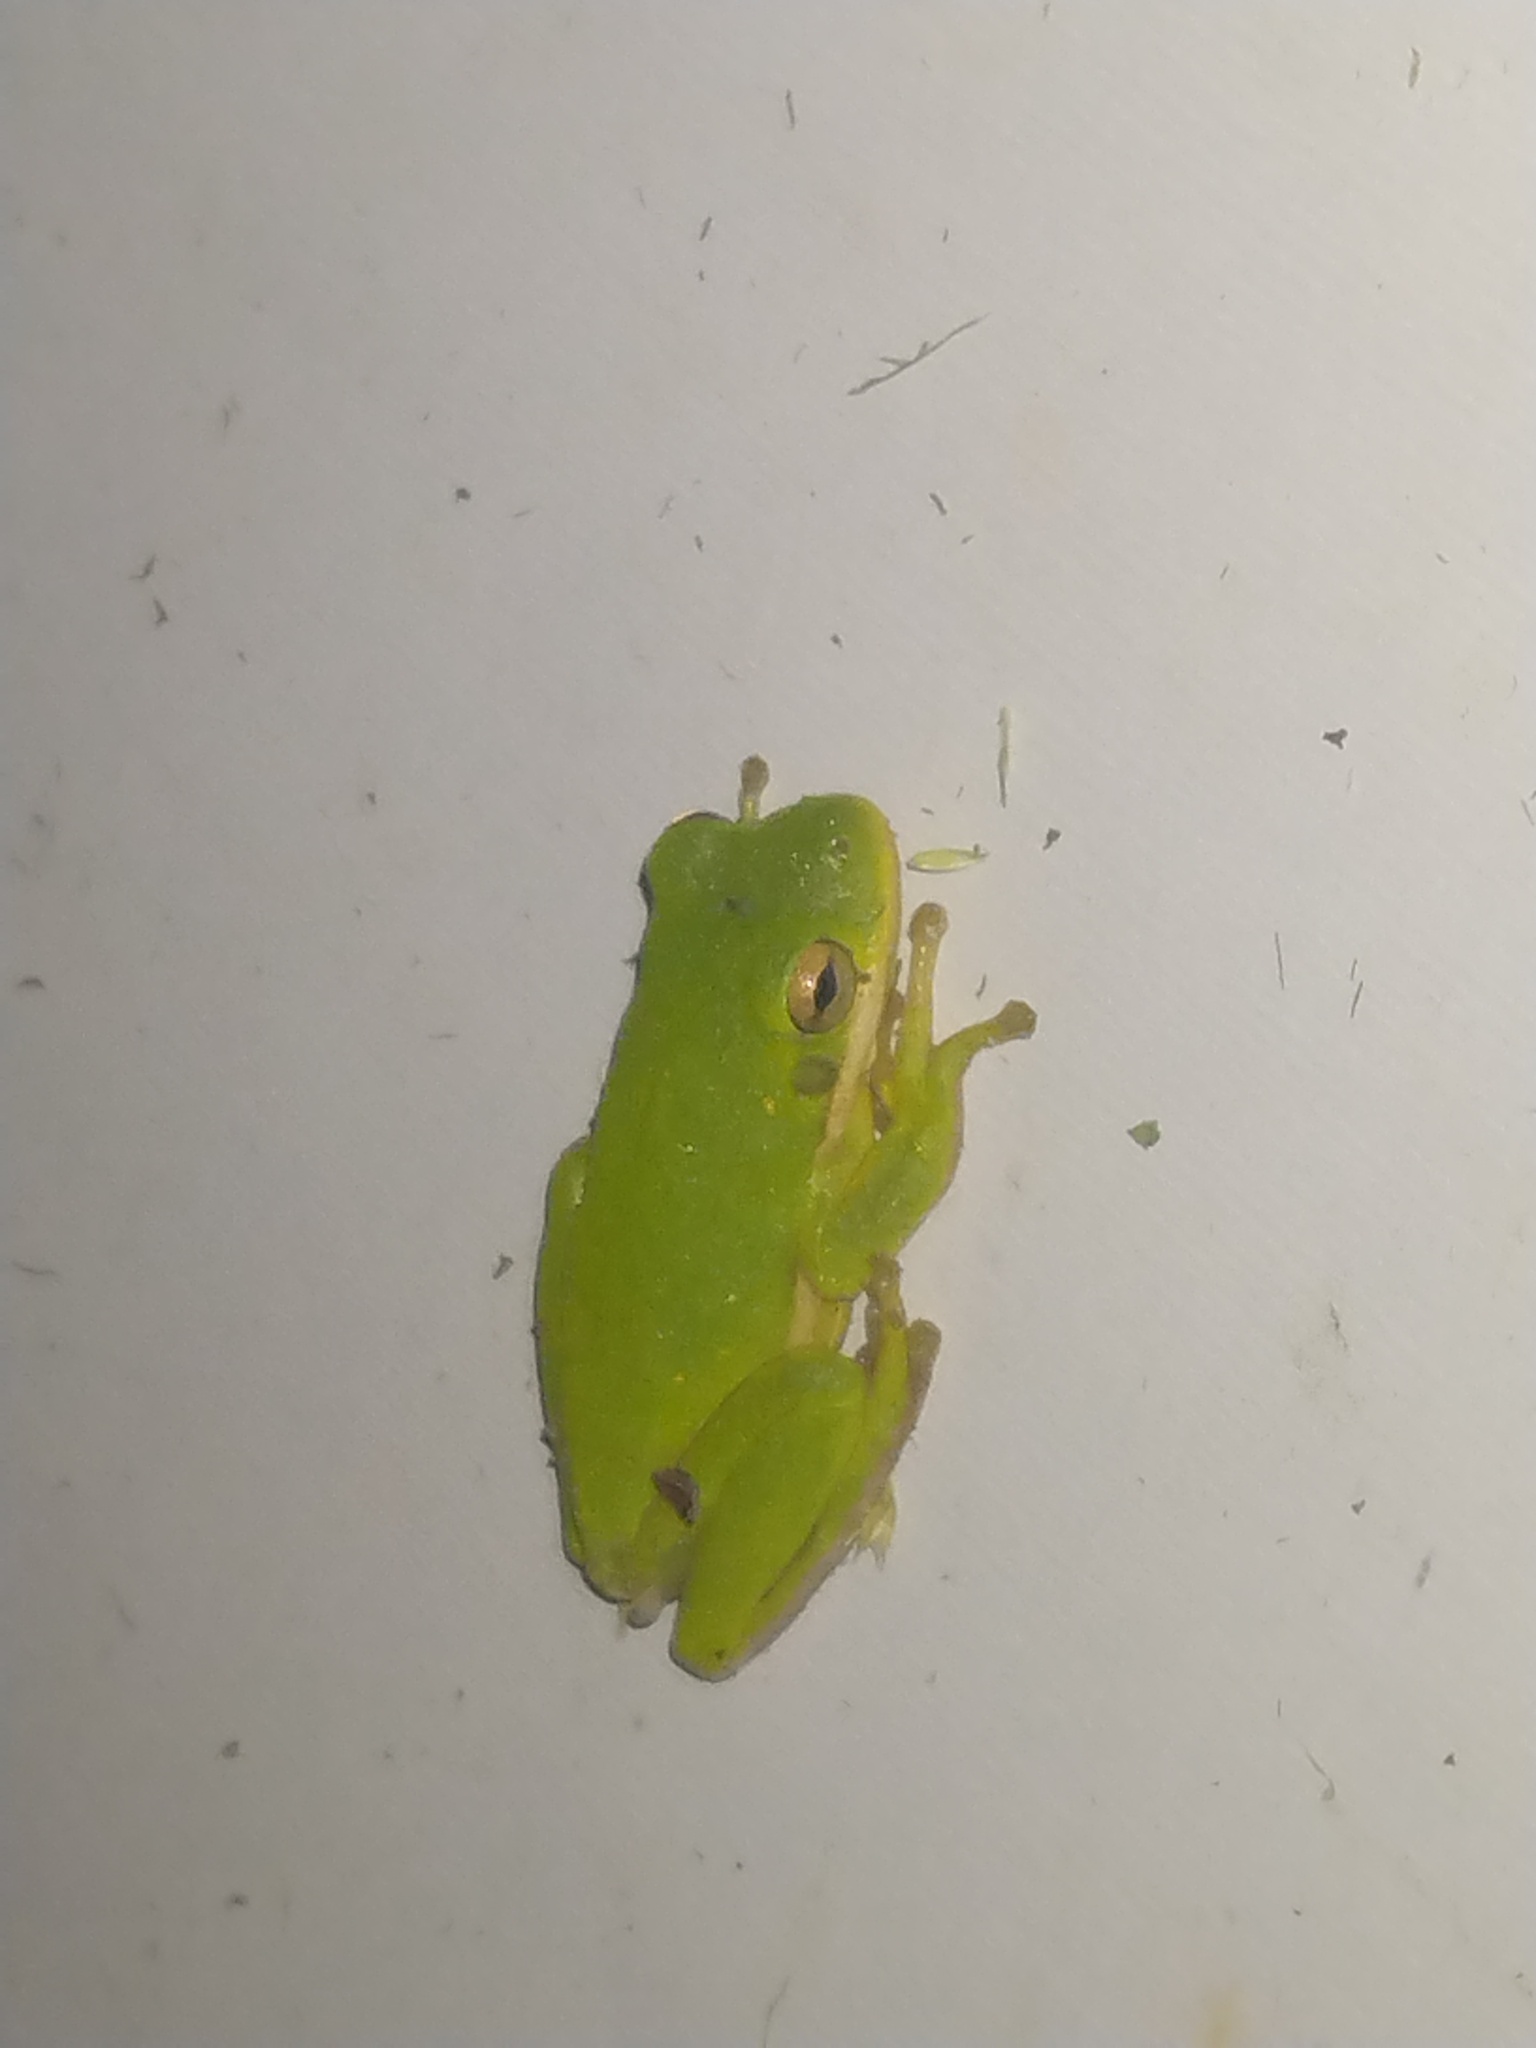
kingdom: Animalia
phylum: Chordata
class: Amphibia
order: Anura
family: Hylidae
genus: Dryophytes
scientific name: Dryophytes cinereus
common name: Green treefrog
